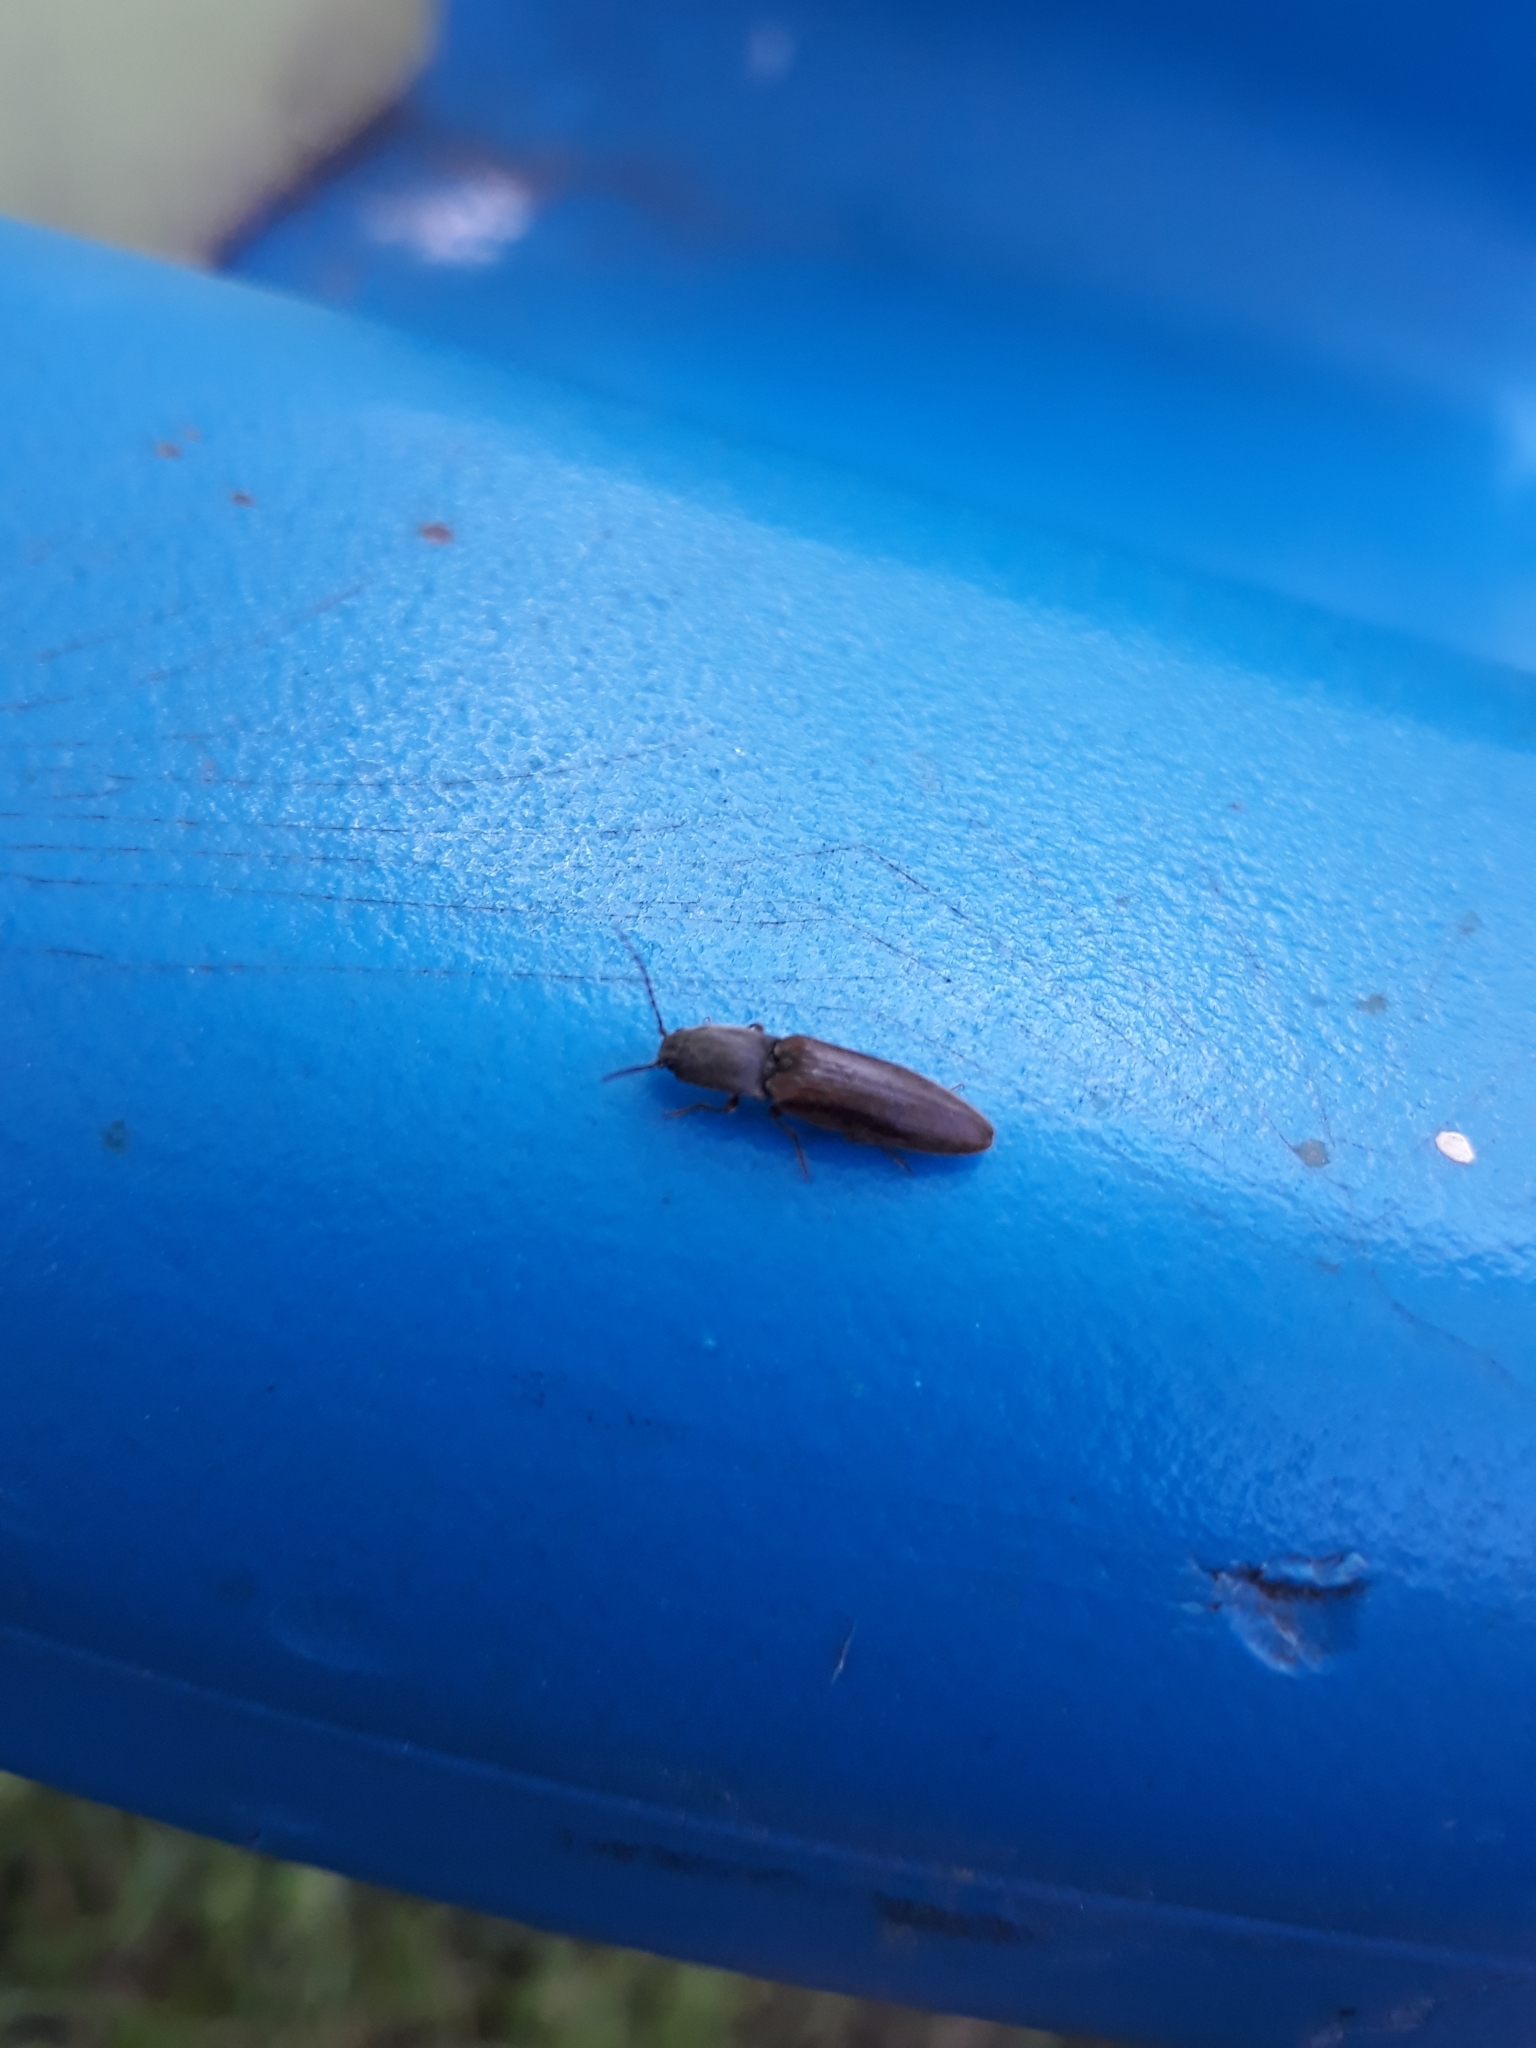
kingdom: Animalia
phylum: Arthropoda
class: Insecta
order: Coleoptera
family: Elateridae
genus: Athous
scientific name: Athous haemorrhoidalis
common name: Red-brown click beetle
